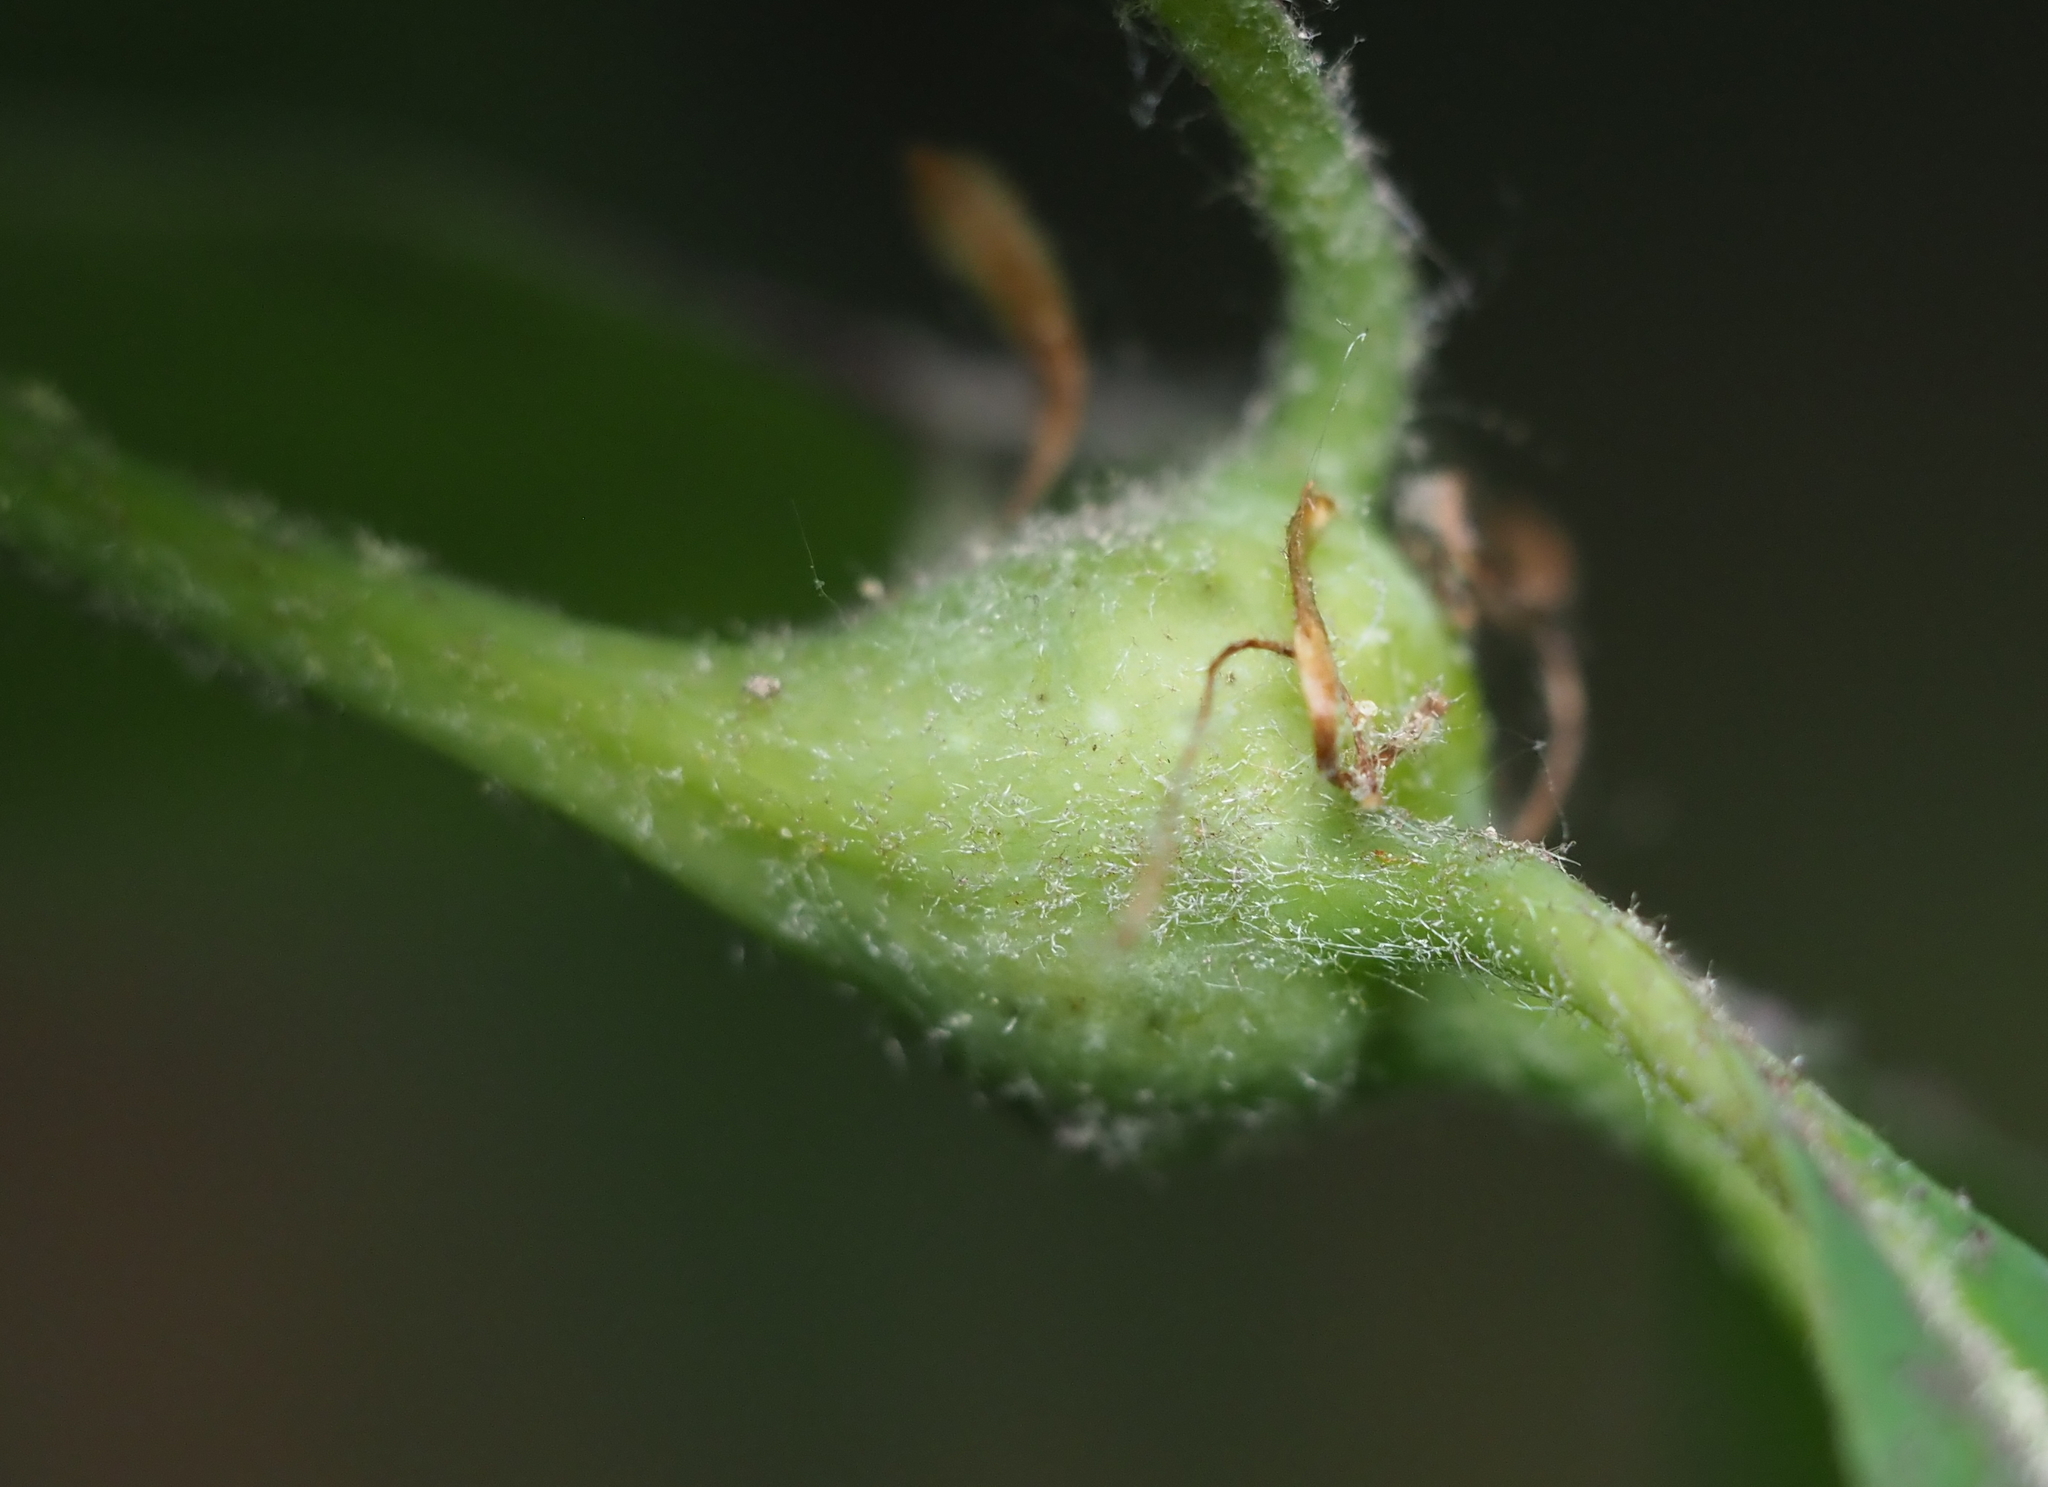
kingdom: Animalia
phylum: Arthropoda
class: Insecta
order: Hymenoptera
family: Cynipidae
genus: Callirhytis
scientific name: Callirhytis clavula
